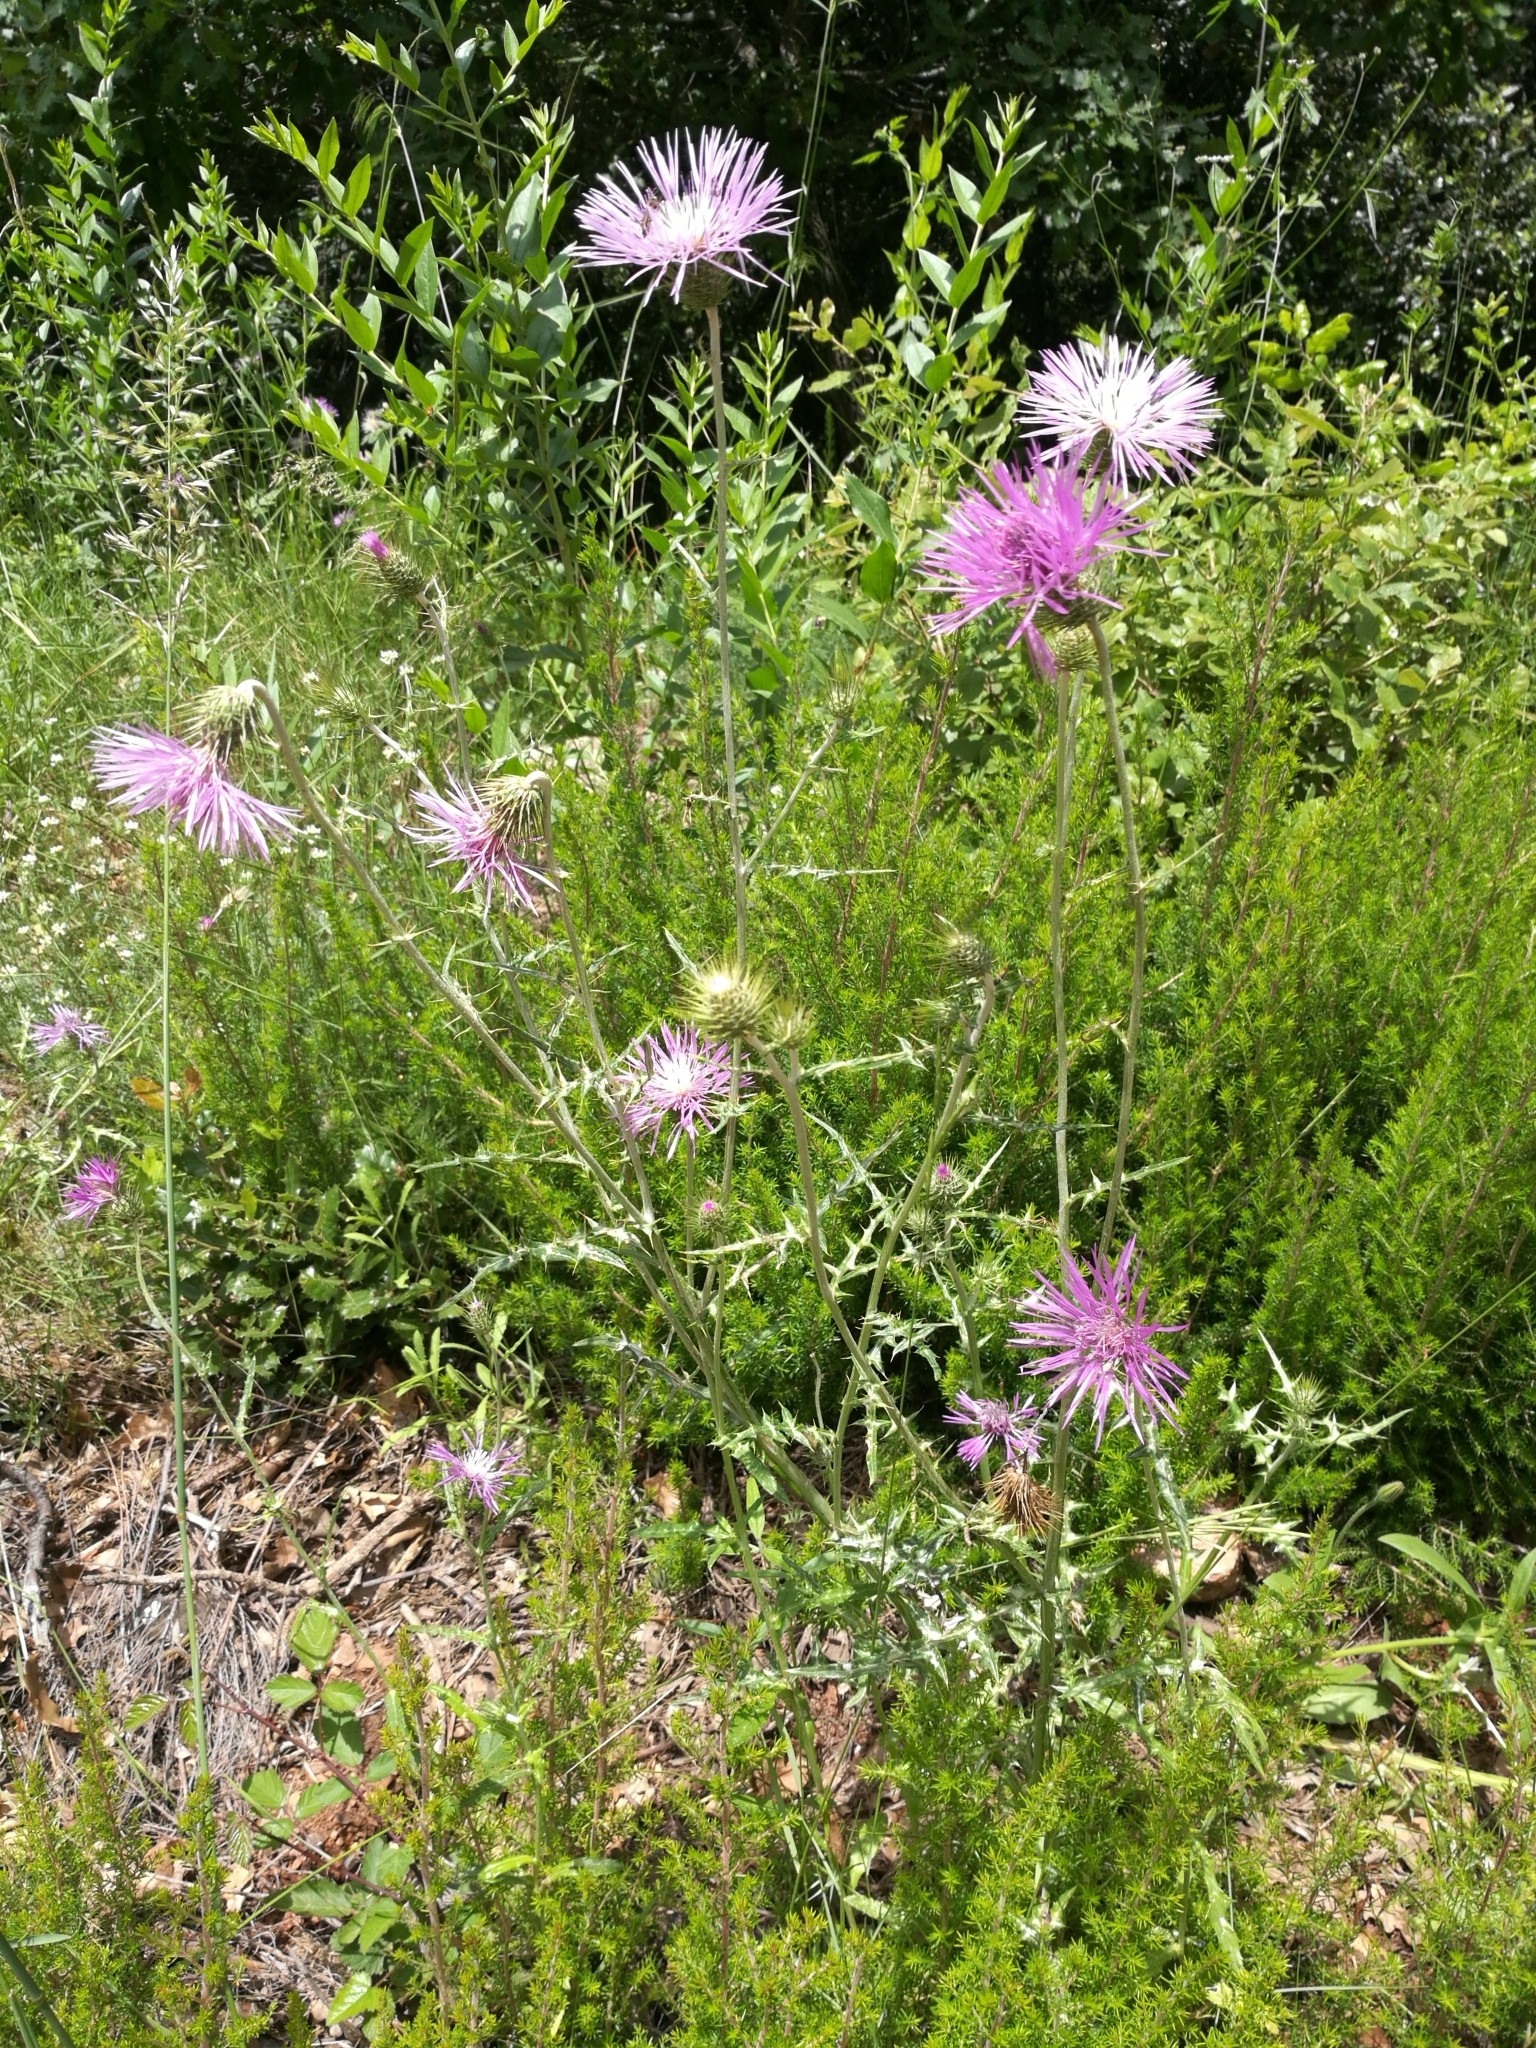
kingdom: Plantae
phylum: Tracheophyta
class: Magnoliopsida
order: Asterales
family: Asteraceae
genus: Galactites
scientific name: Galactites tomentosa
